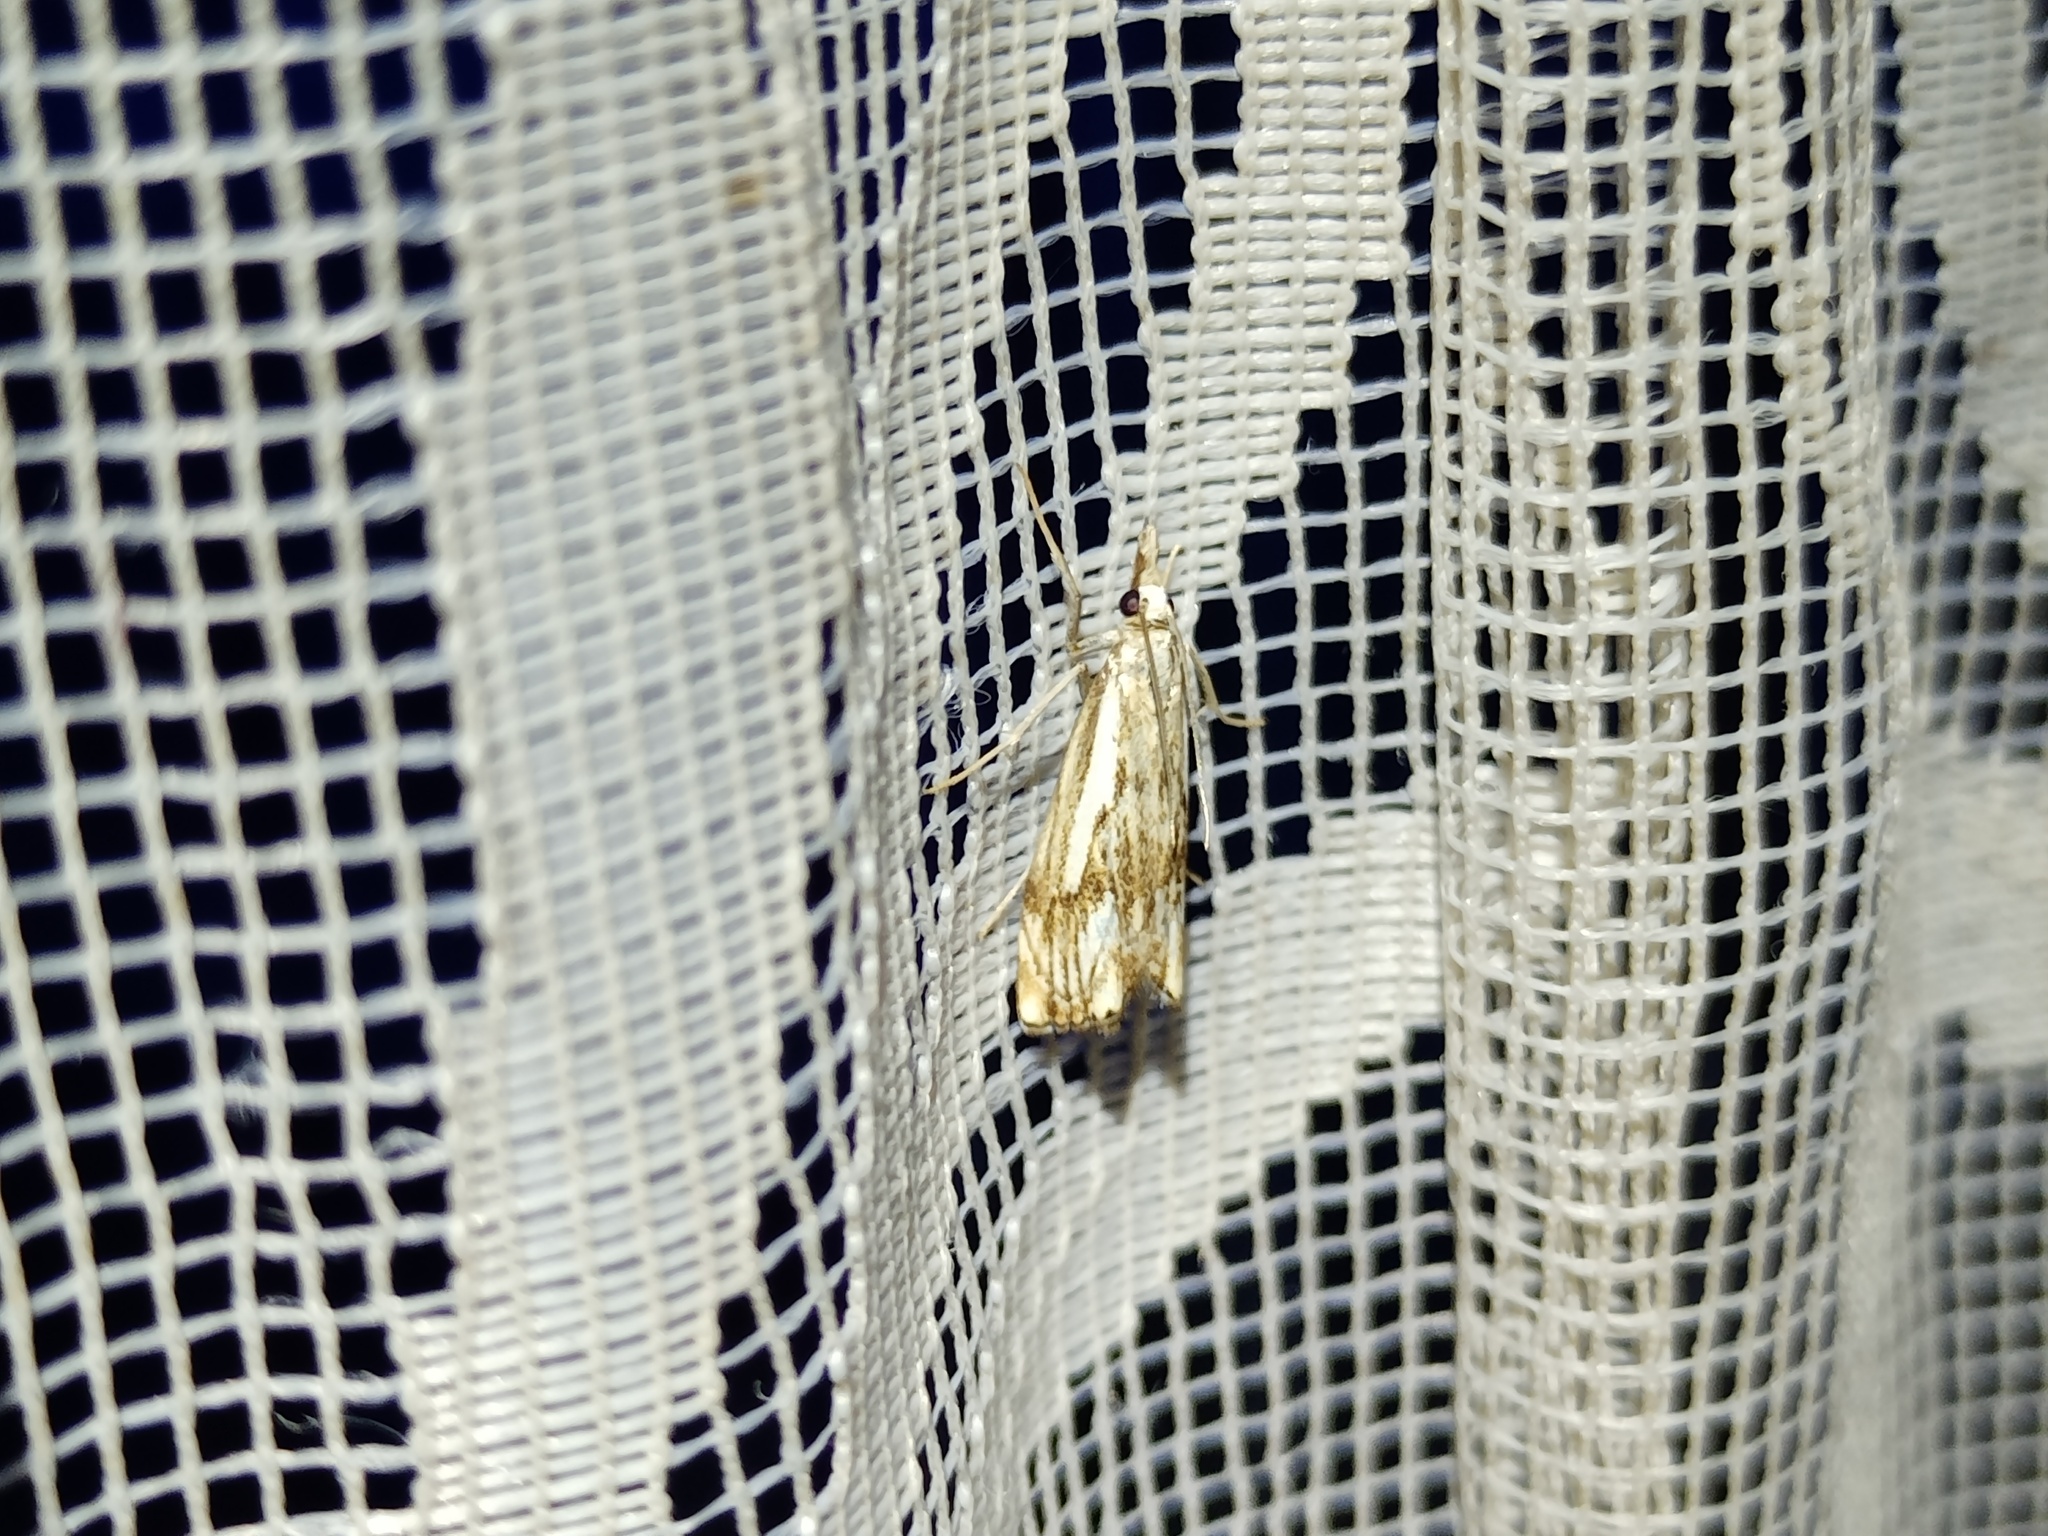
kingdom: Animalia
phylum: Arthropoda
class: Insecta
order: Lepidoptera
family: Crambidae
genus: Catoptria
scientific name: Catoptria falsella
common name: Chequered grass-veneer
